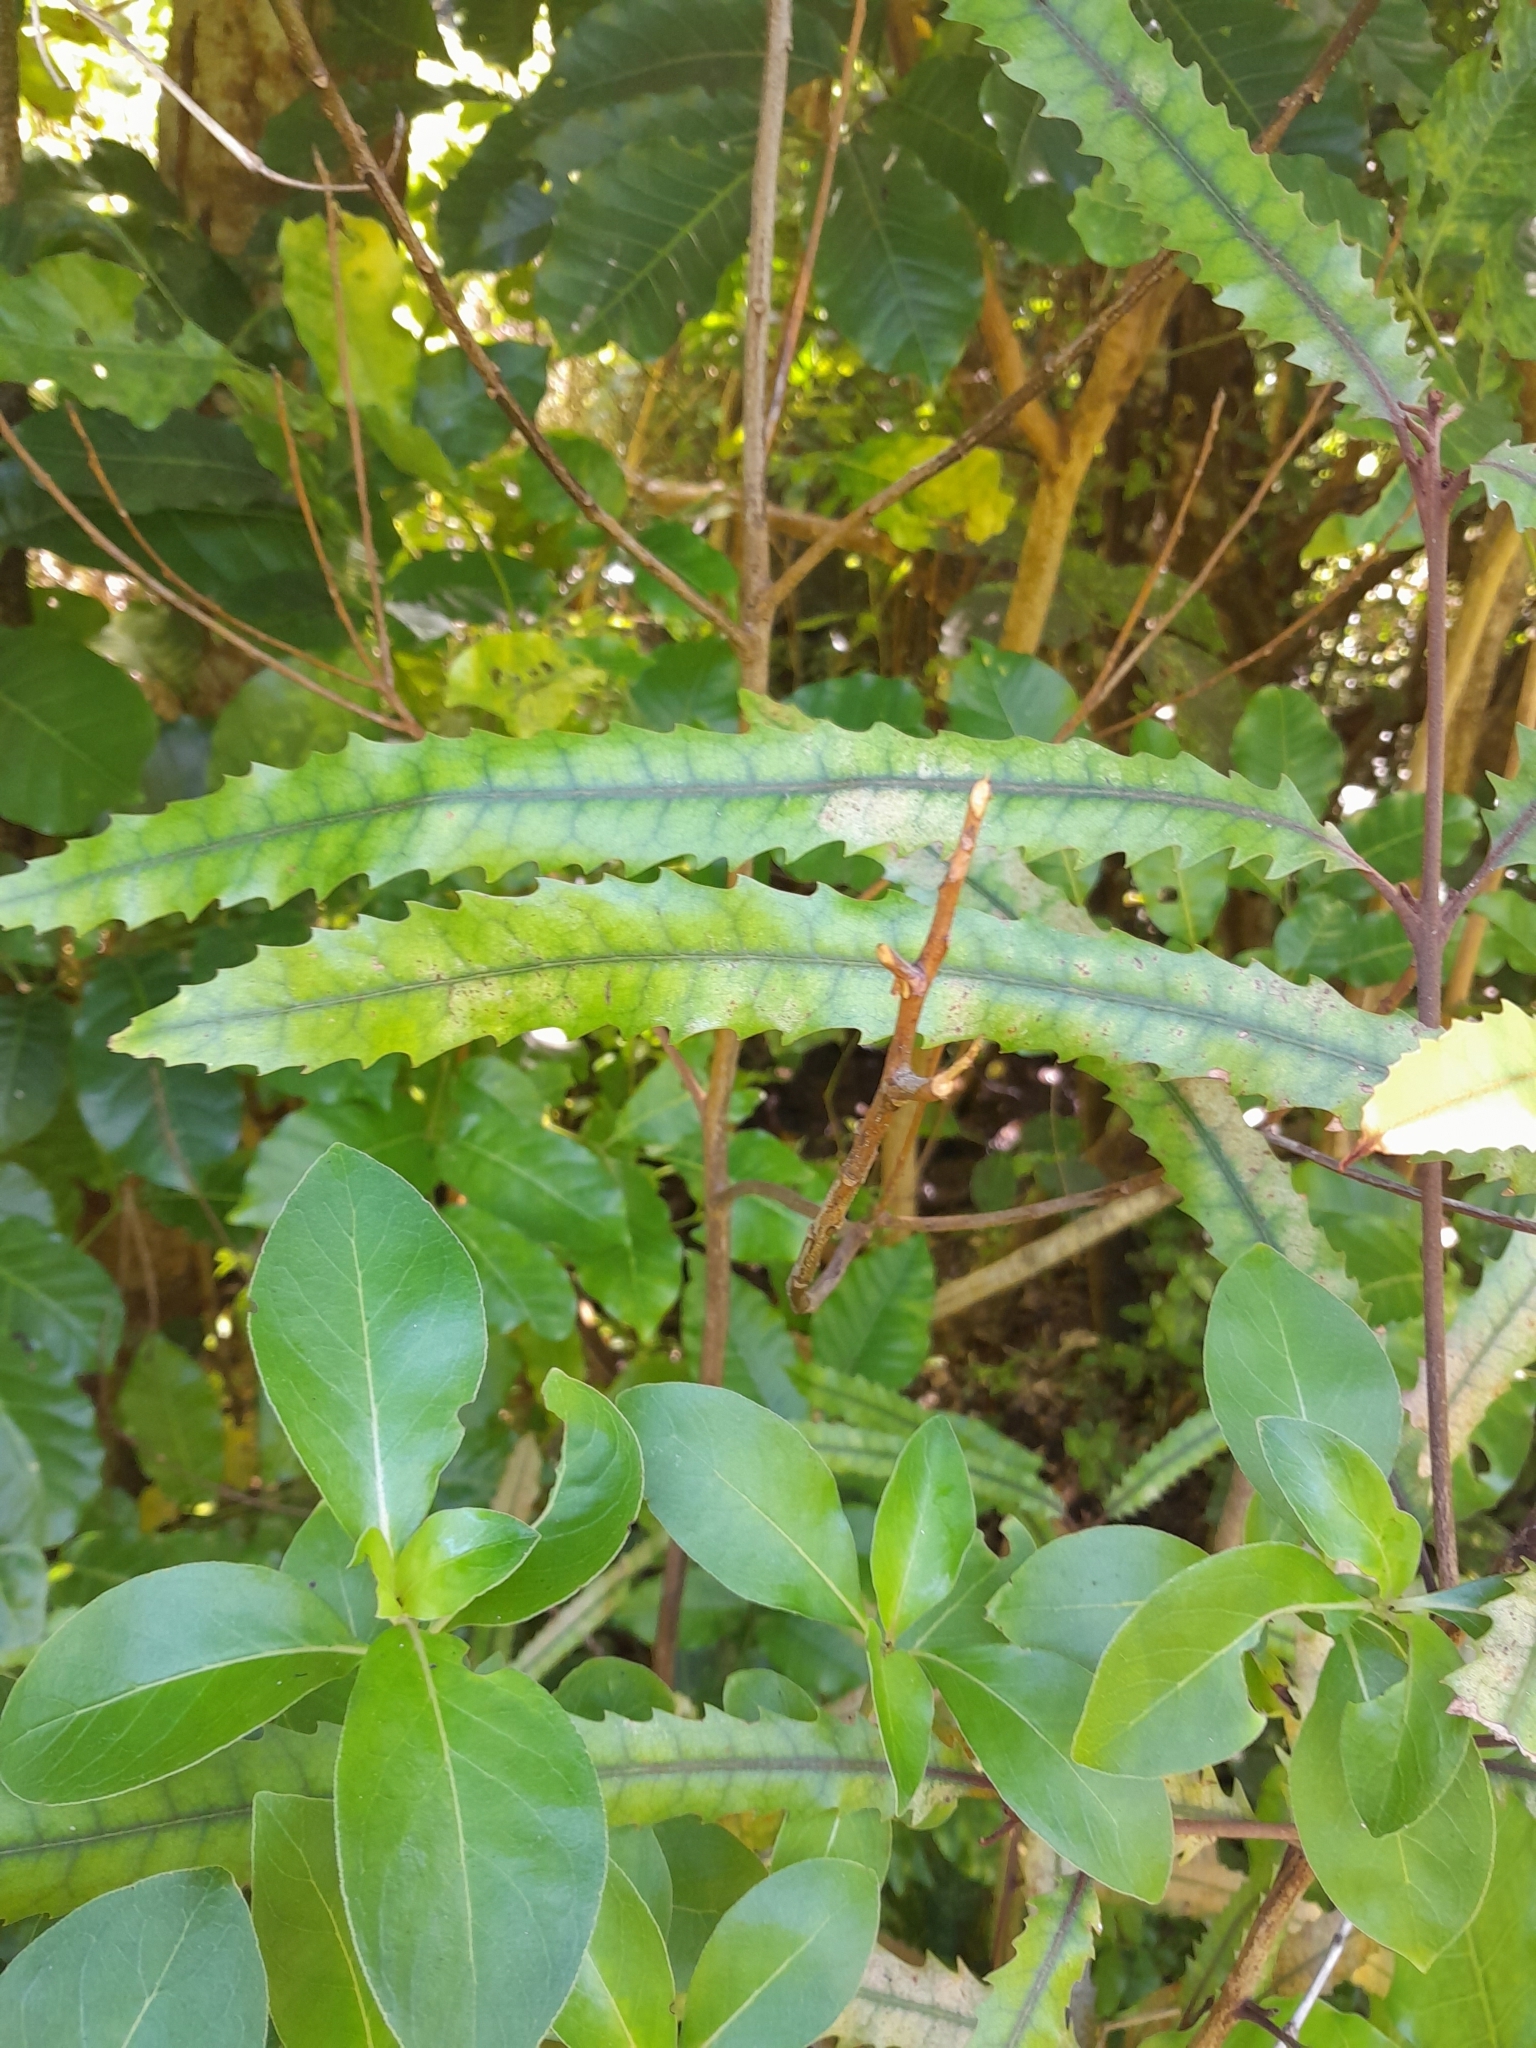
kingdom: Plantae
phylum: Tracheophyta
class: Magnoliopsida
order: Proteales
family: Proteaceae
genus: Knightia
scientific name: Knightia excelsa
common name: New zealand-honeysuckle
